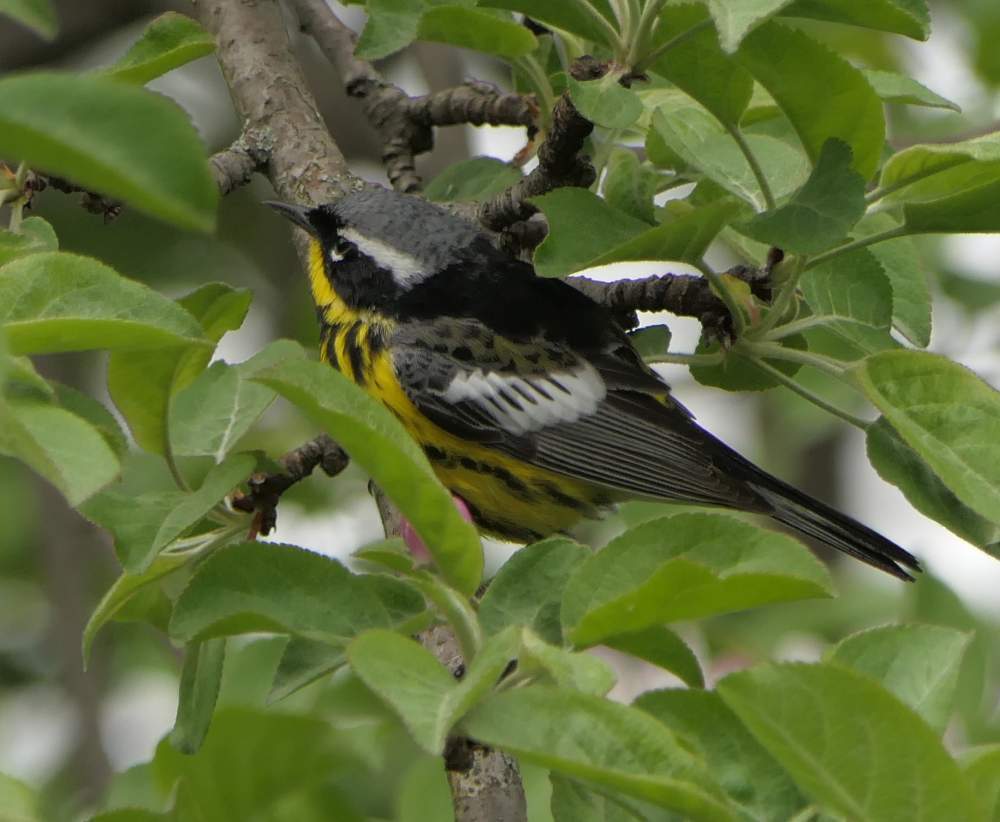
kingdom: Animalia
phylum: Chordata
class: Aves
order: Passeriformes
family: Parulidae
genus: Setophaga
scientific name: Setophaga magnolia
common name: Magnolia warbler
